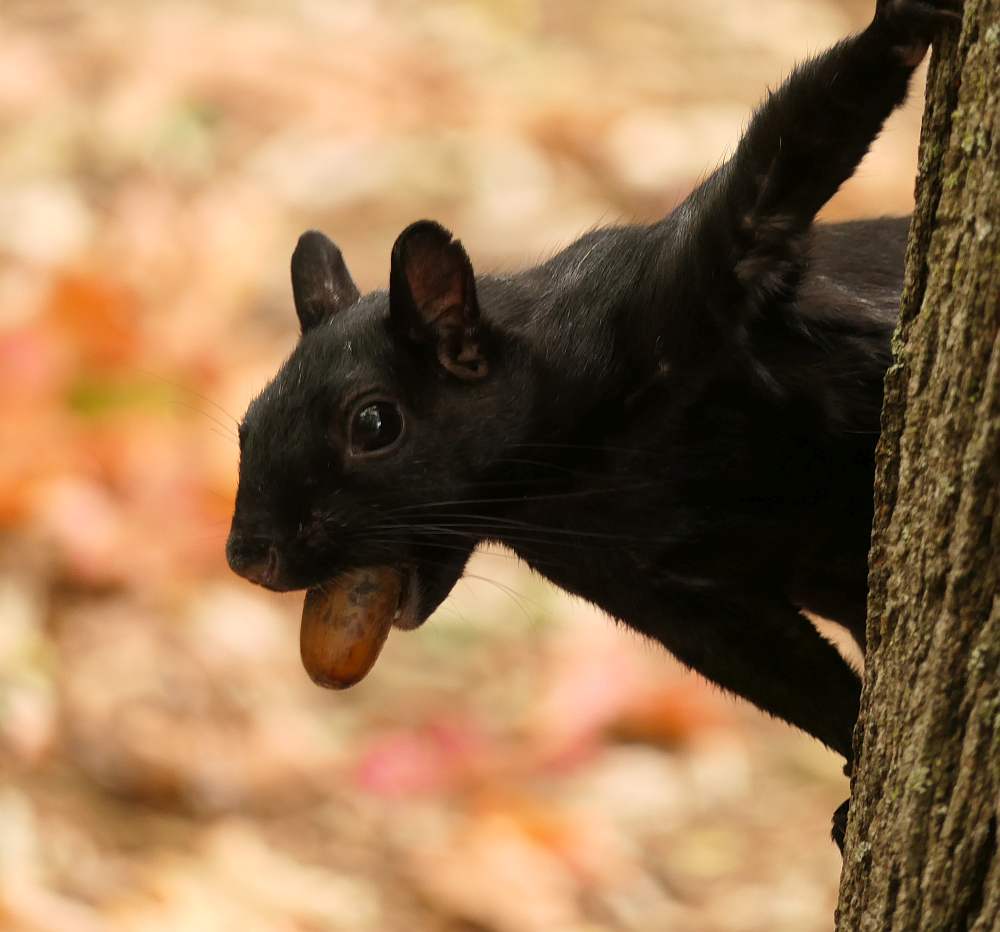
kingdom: Animalia
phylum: Chordata
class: Mammalia
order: Rodentia
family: Sciuridae
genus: Sciurus
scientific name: Sciurus carolinensis
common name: Eastern gray squirrel
